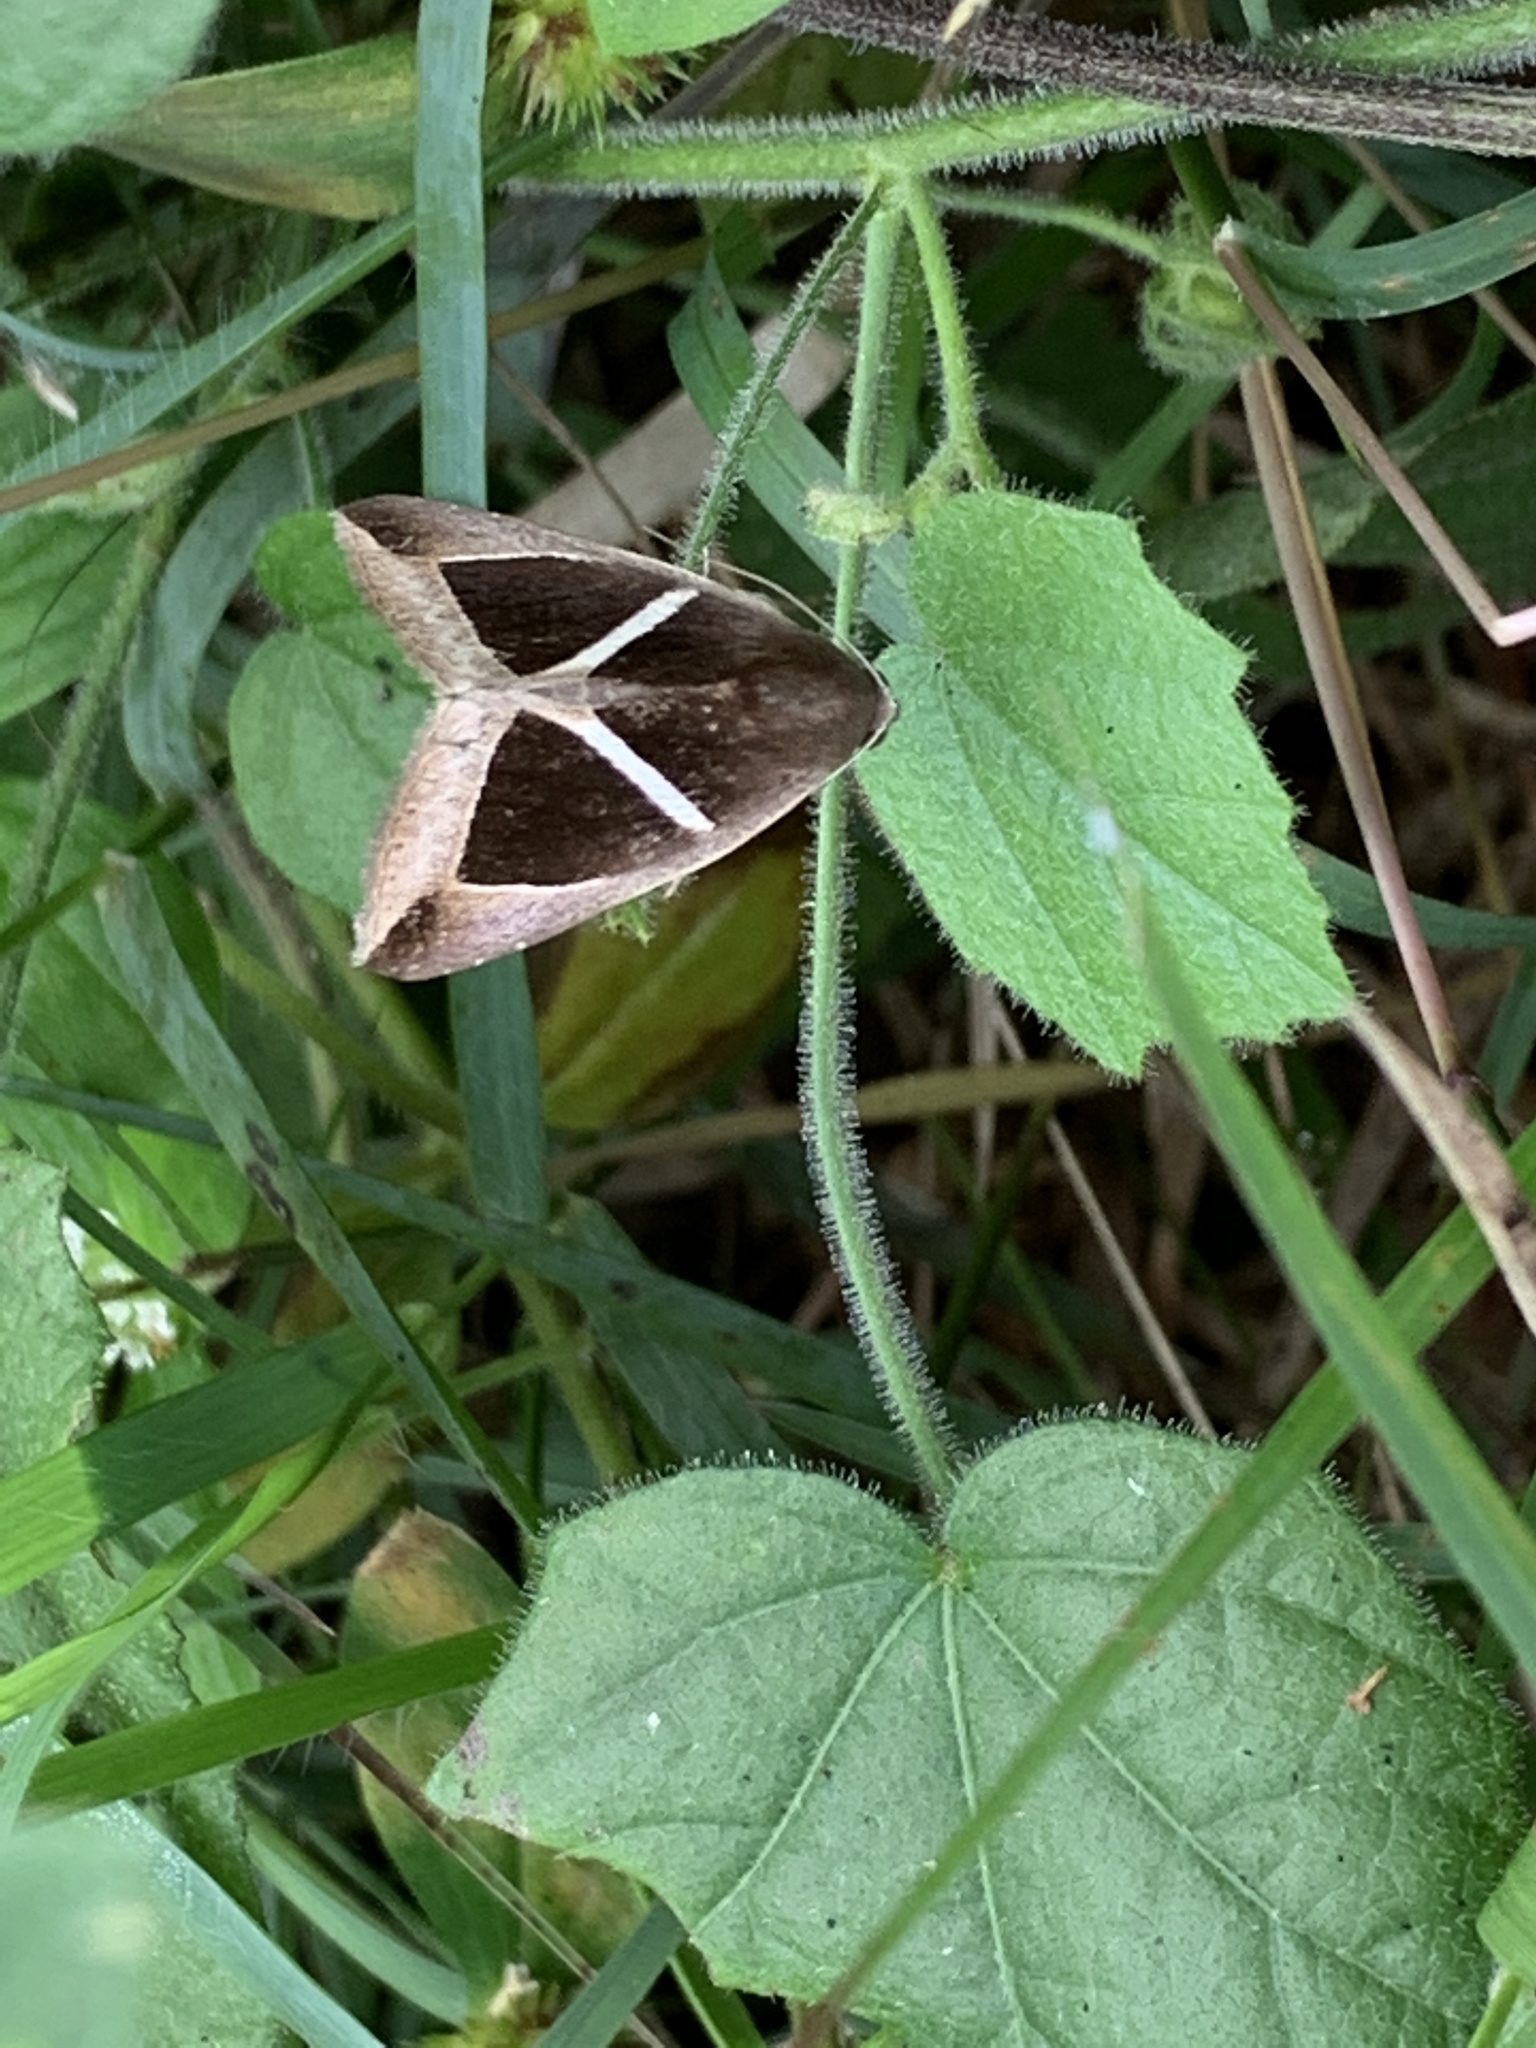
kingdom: Animalia
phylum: Arthropoda
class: Insecta
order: Lepidoptera
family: Erebidae
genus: Chalciope
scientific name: Chalciope mygdon
